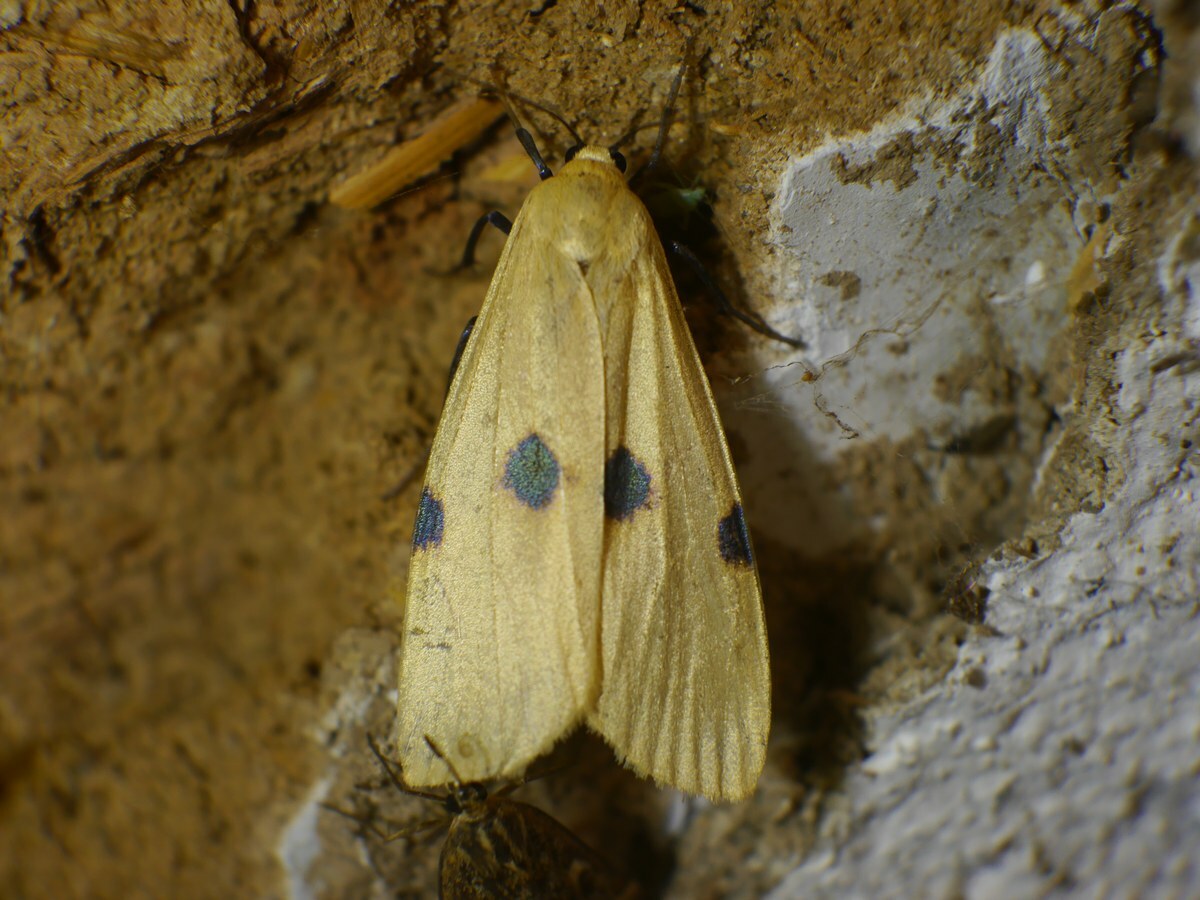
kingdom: Animalia
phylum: Arthropoda
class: Insecta
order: Lepidoptera
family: Erebidae
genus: Lithosia
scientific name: Lithosia quadra
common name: Four-spotted footman
